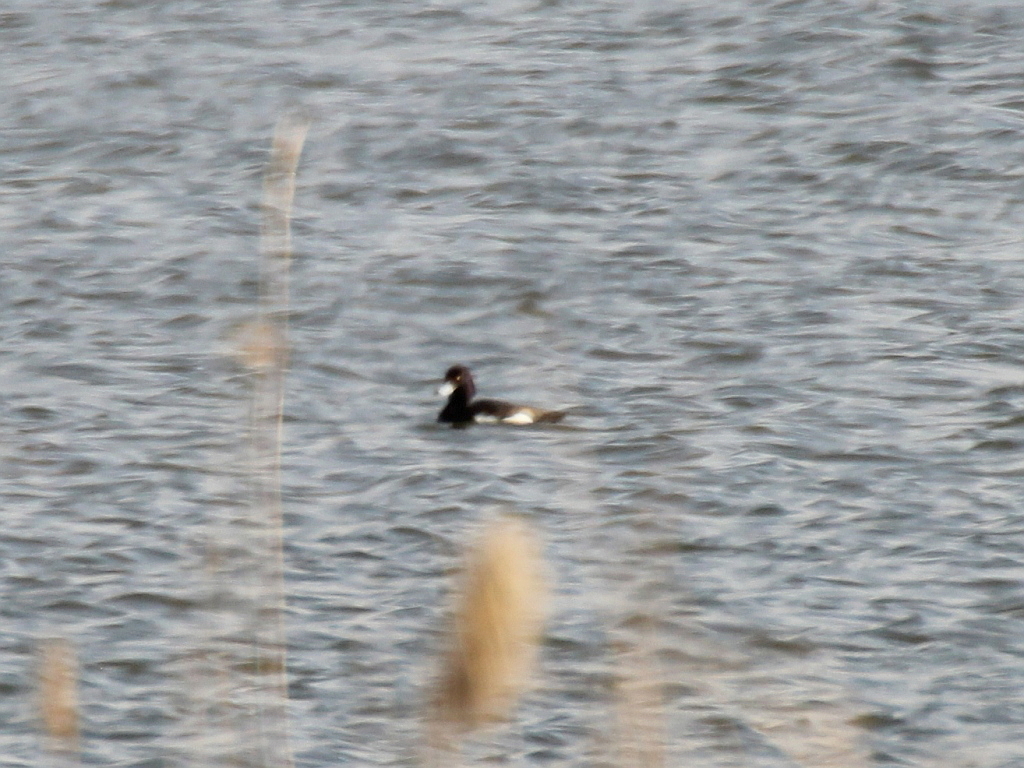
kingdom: Animalia
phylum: Chordata
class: Aves
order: Anseriformes
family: Anatidae
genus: Aythya
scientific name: Aythya fuligula
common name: Tufted duck
